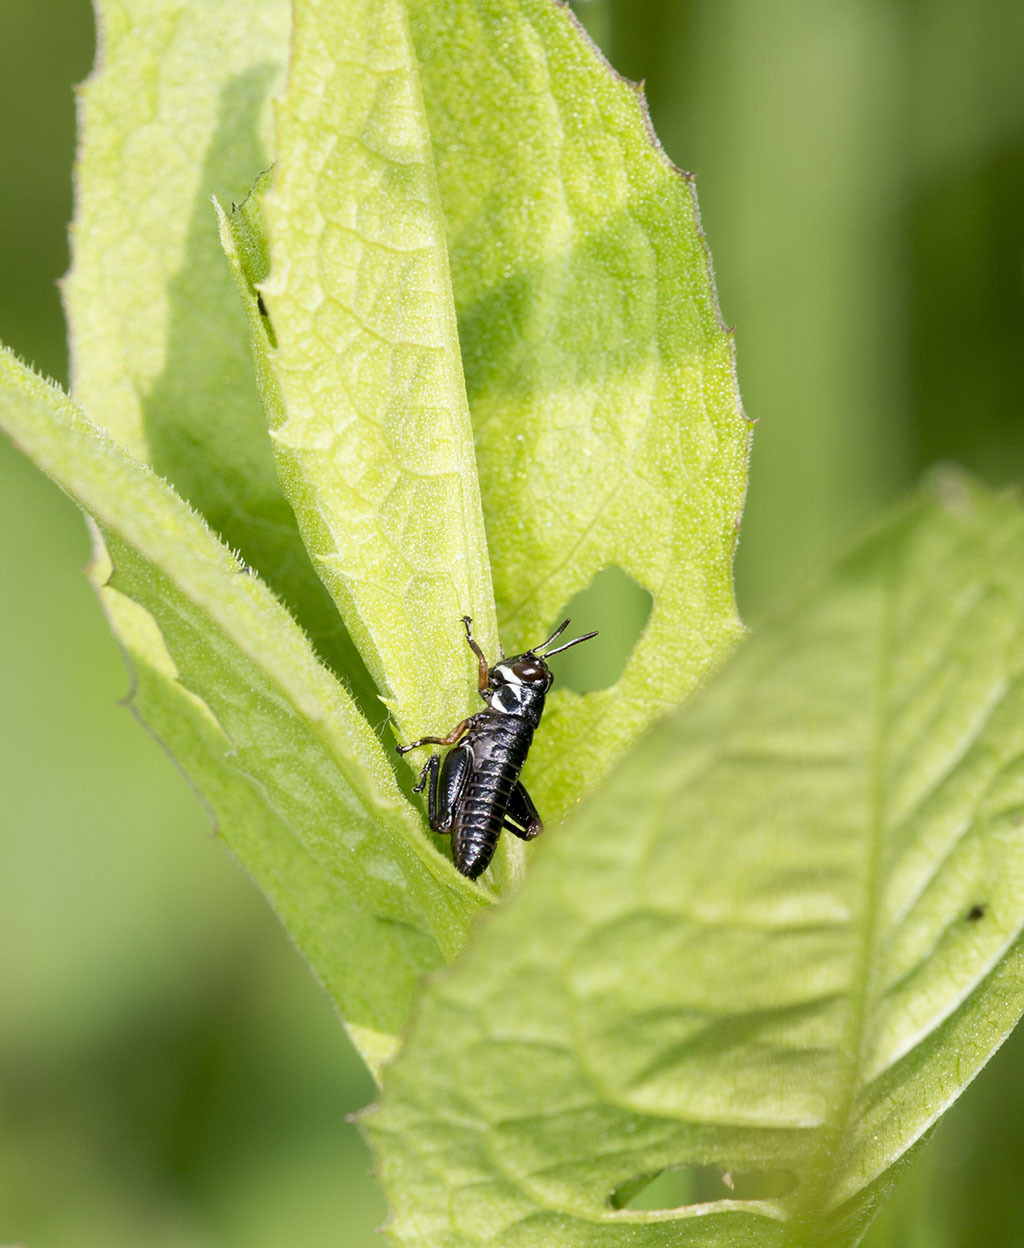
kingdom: Animalia
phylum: Arthropoda
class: Insecta
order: Orthoptera
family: Acrididae
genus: Micropodisma
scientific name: Micropodisma salamandra
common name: Foothill mountain grasshopper
